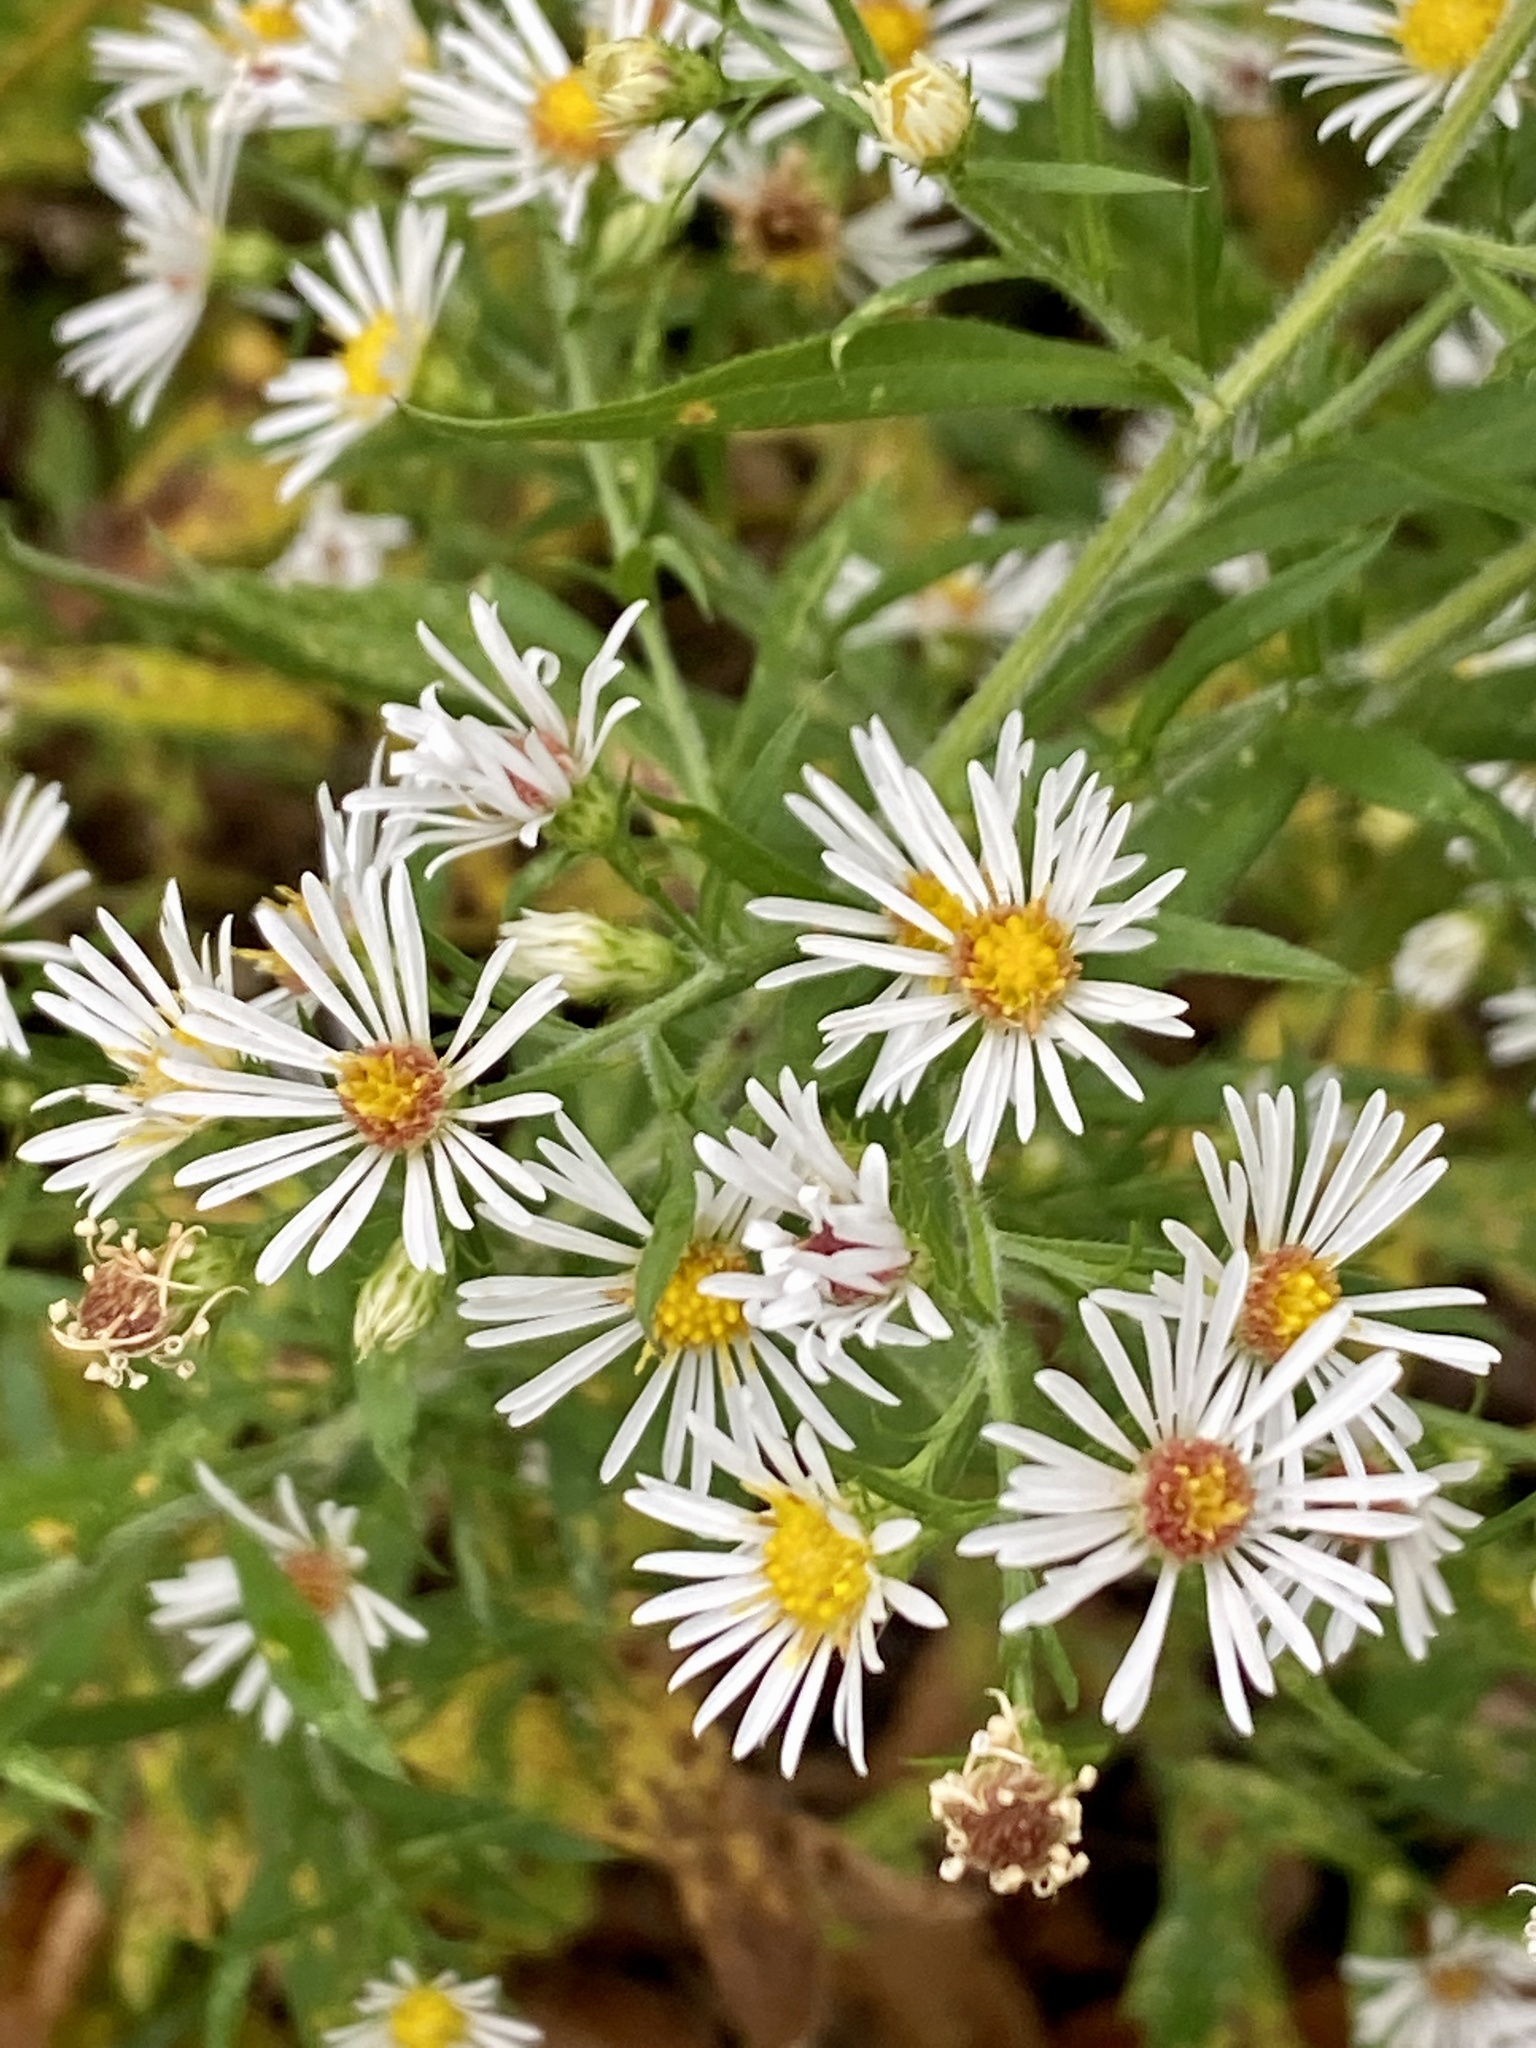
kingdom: Plantae
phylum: Tracheophyta
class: Magnoliopsida
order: Asterales
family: Asteraceae
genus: Symphyotrichum
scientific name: Symphyotrichum pilosum
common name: Awl aster
